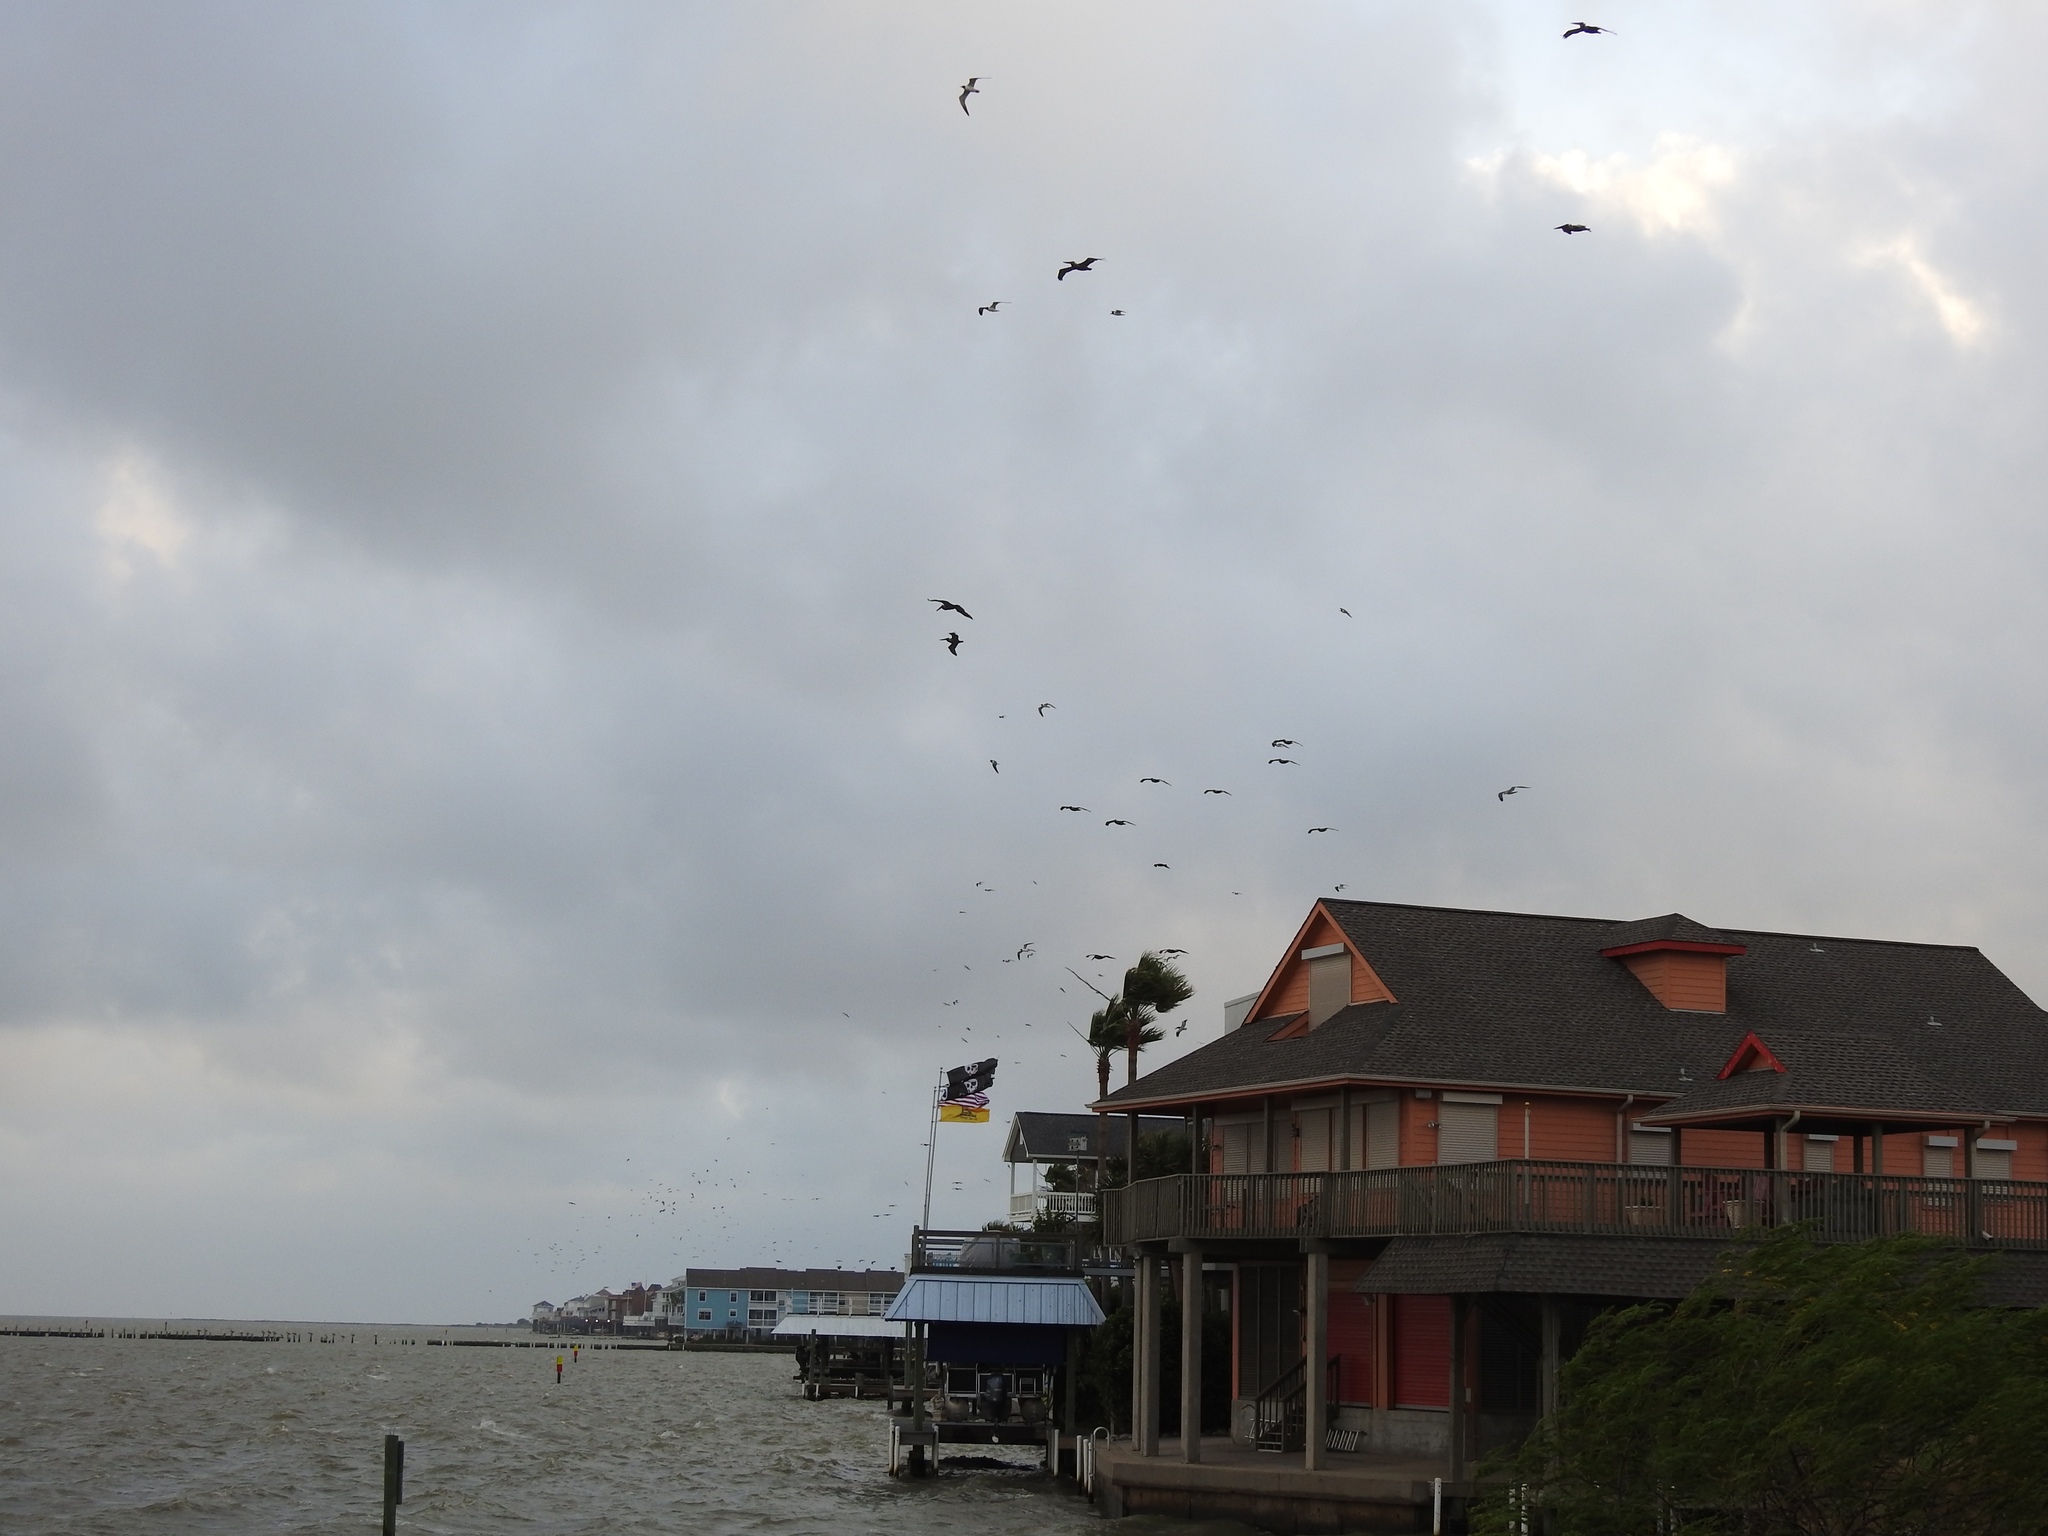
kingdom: Animalia
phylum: Chordata
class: Aves
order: Pelecaniformes
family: Pelecanidae
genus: Pelecanus
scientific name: Pelecanus occidentalis
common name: Brown pelican
